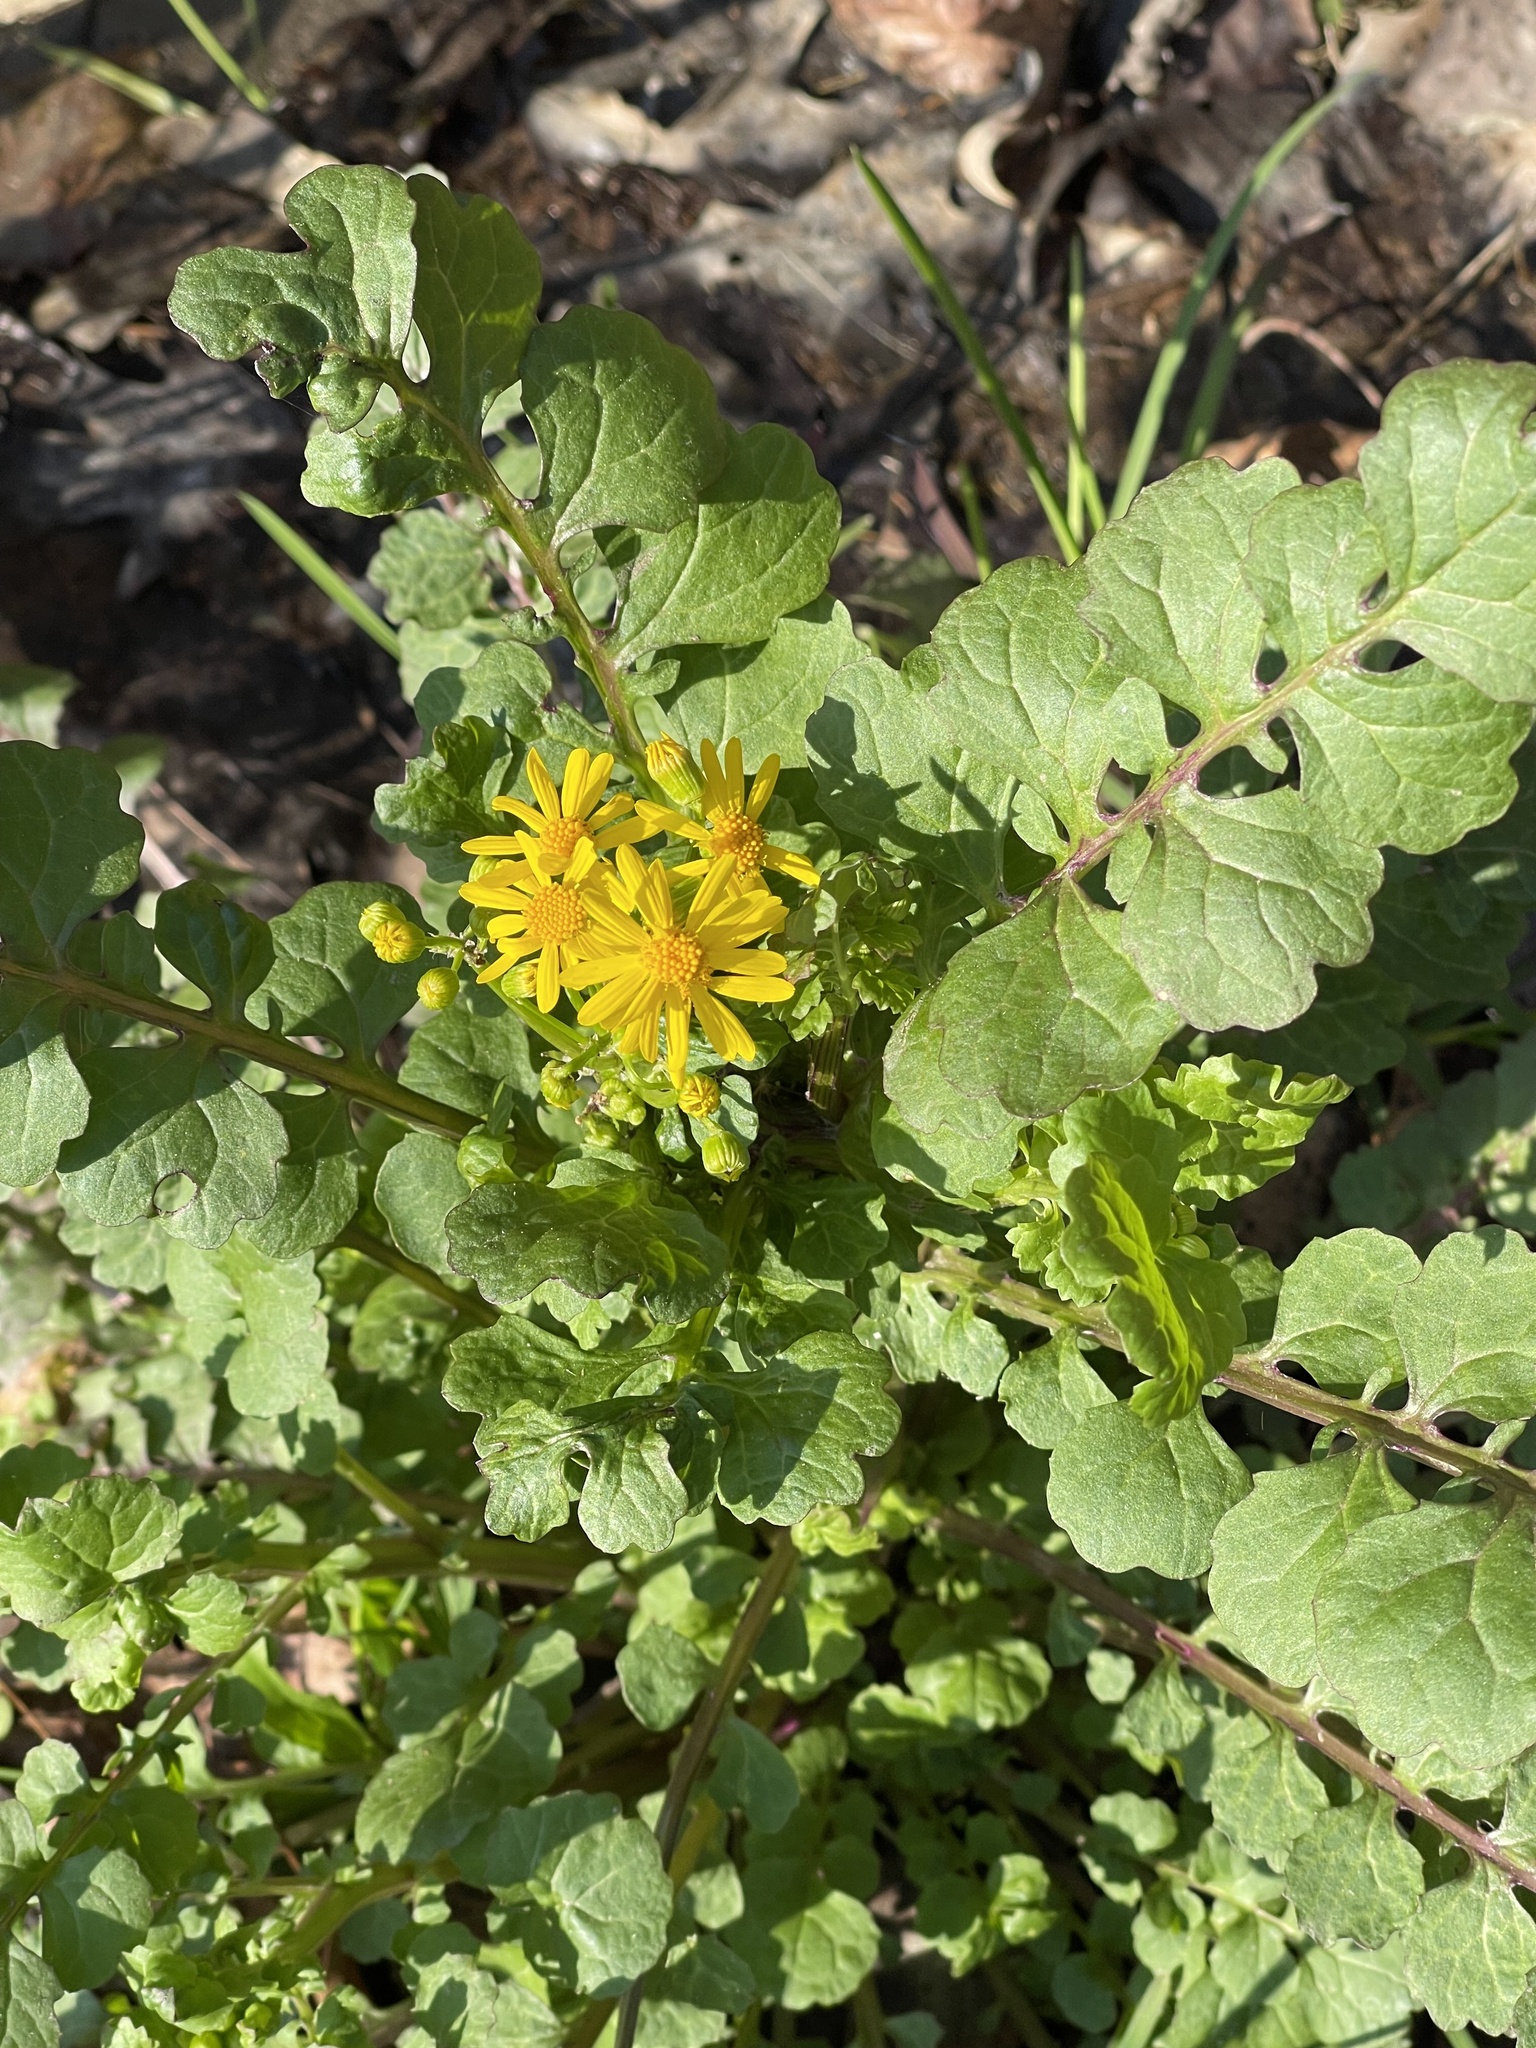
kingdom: Plantae
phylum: Tracheophyta
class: Magnoliopsida
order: Asterales
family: Asteraceae
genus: Packera
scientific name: Packera glabella
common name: Butterweed
